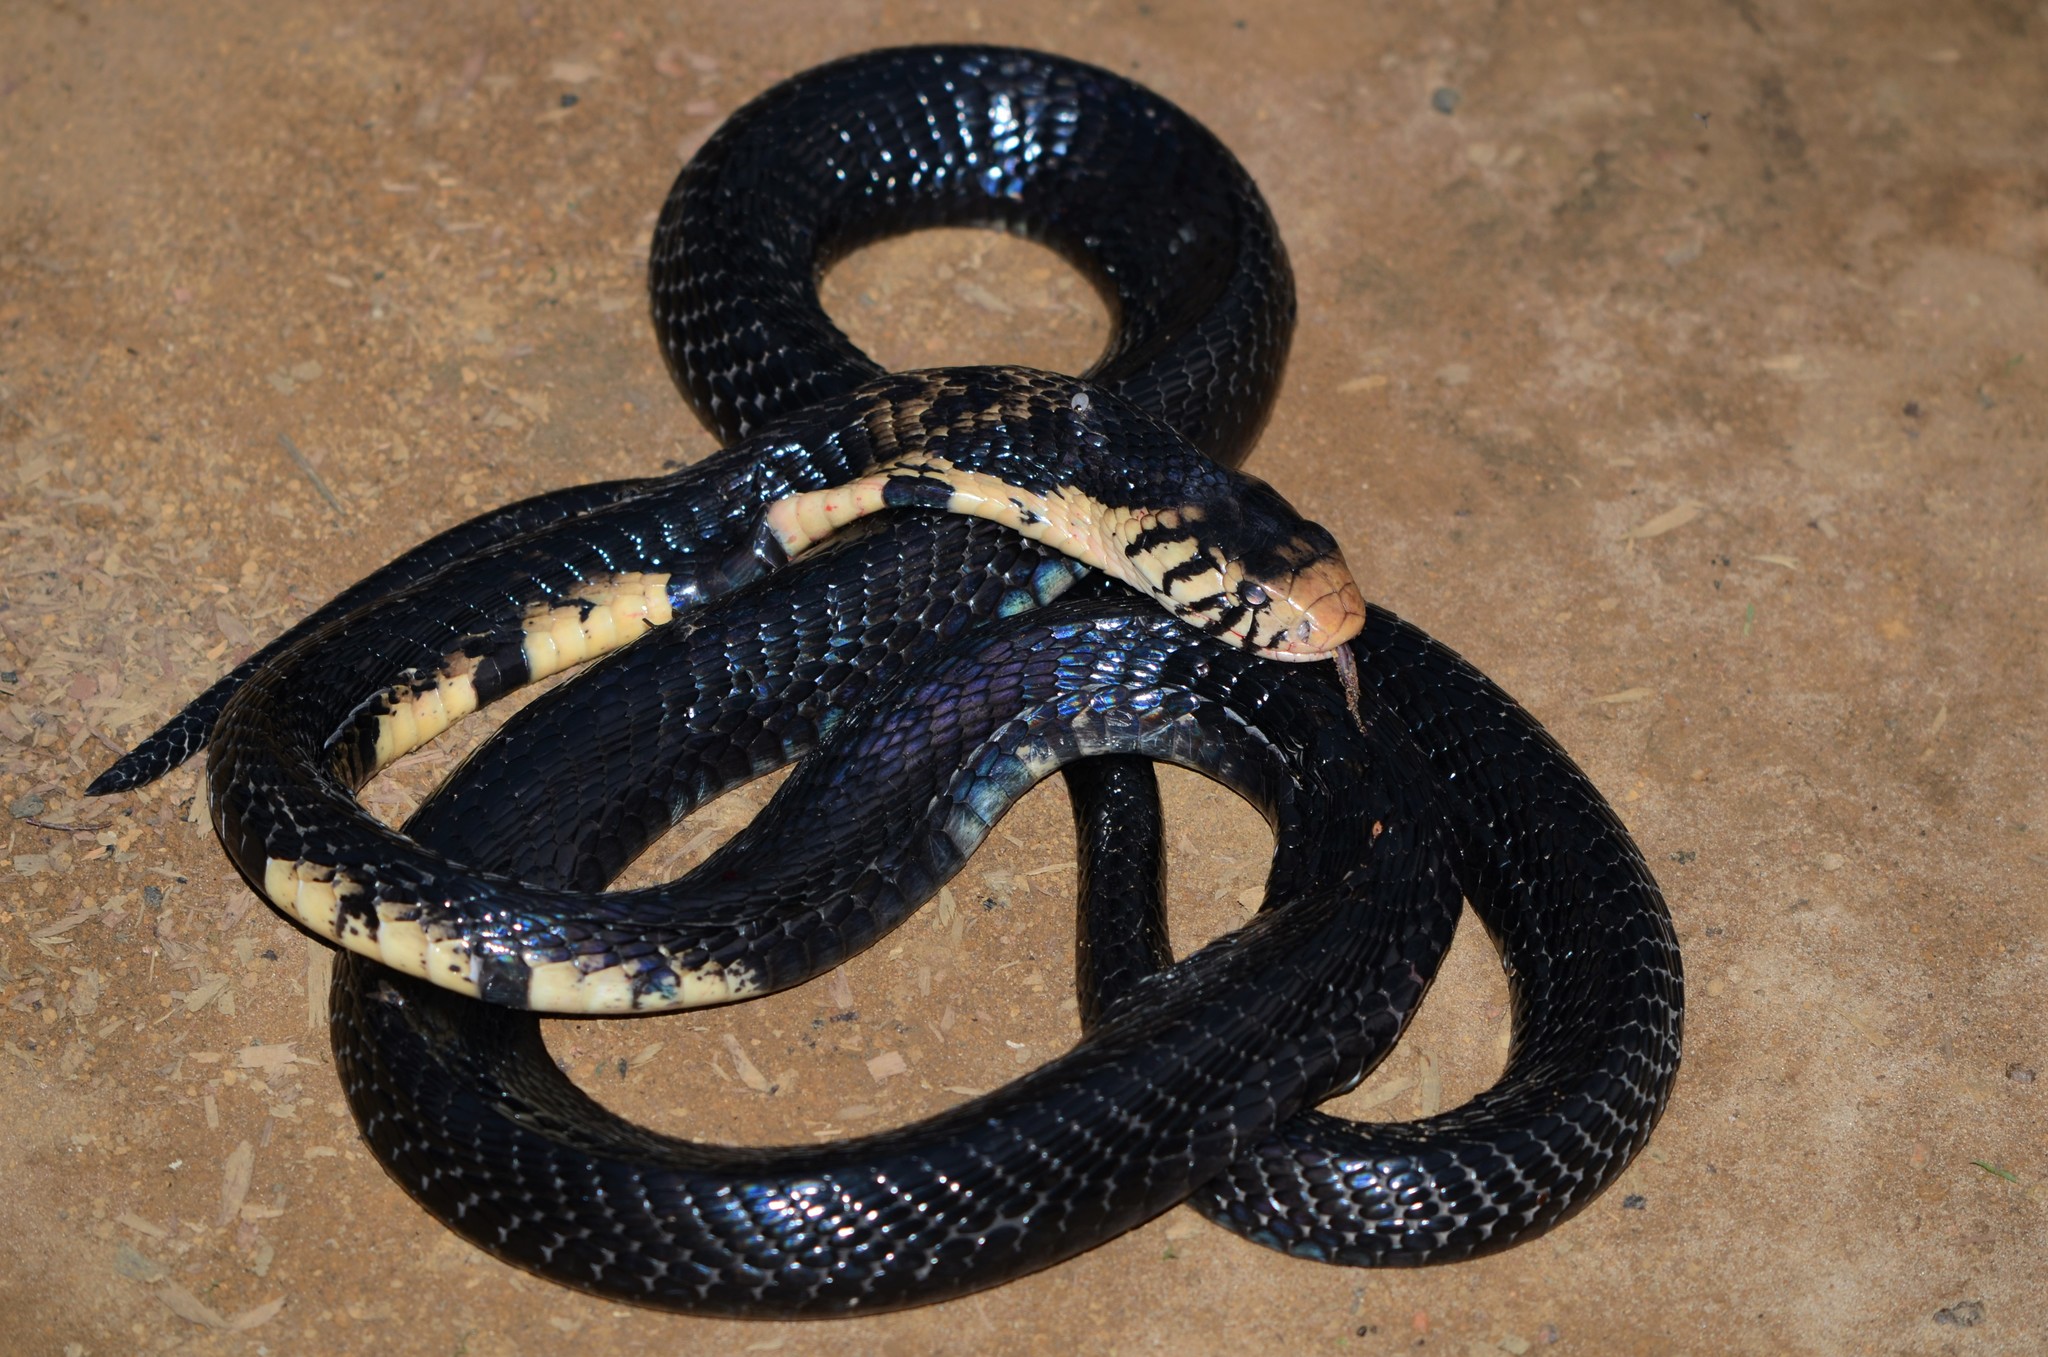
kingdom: Animalia
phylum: Chordata
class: Squamata
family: Elapidae
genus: Naja
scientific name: Naja melanoleuca
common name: Central africa forest cobra
